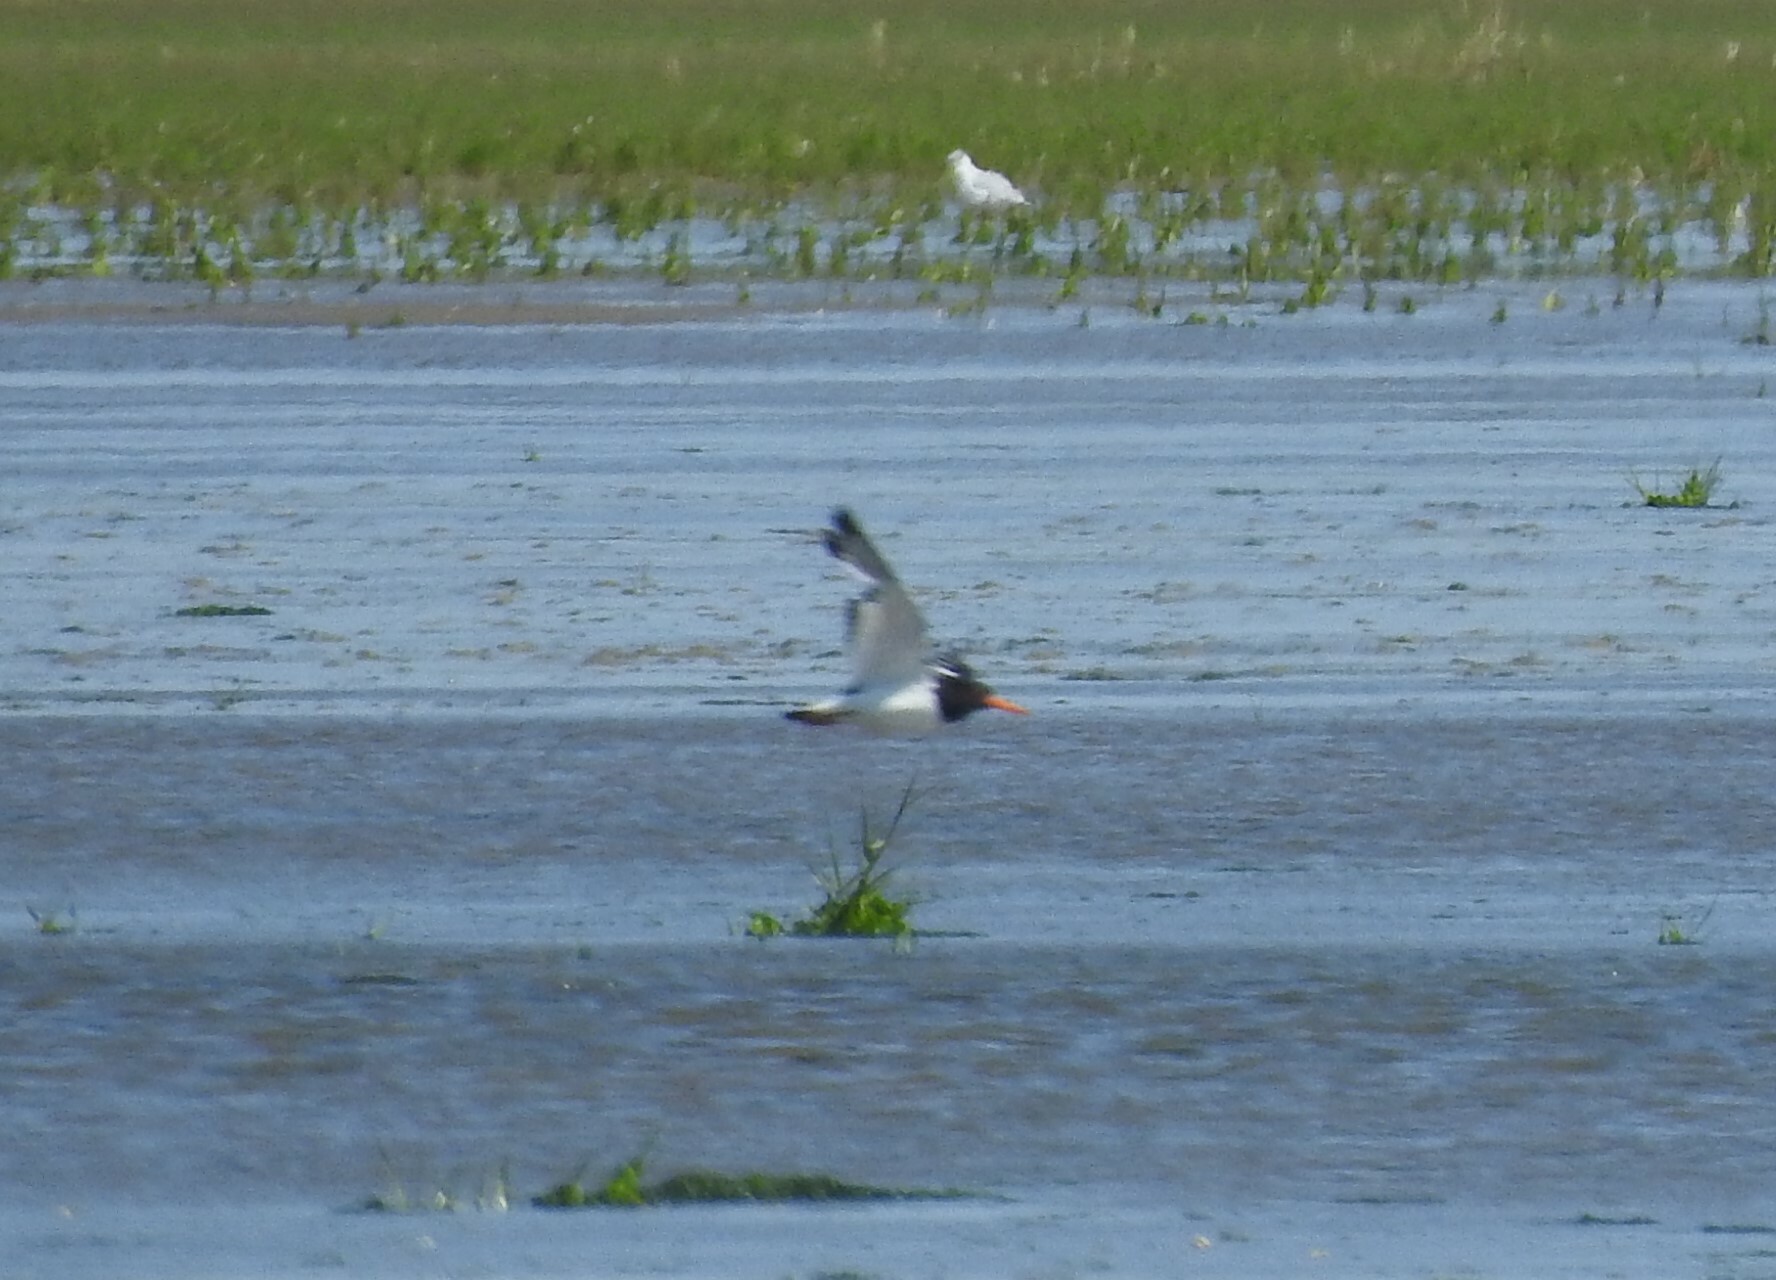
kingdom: Animalia
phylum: Chordata
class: Aves
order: Charadriiformes
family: Haematopodidae
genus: Haematopus
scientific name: Haematopus ostralegus
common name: Eurasian oystercatcher
